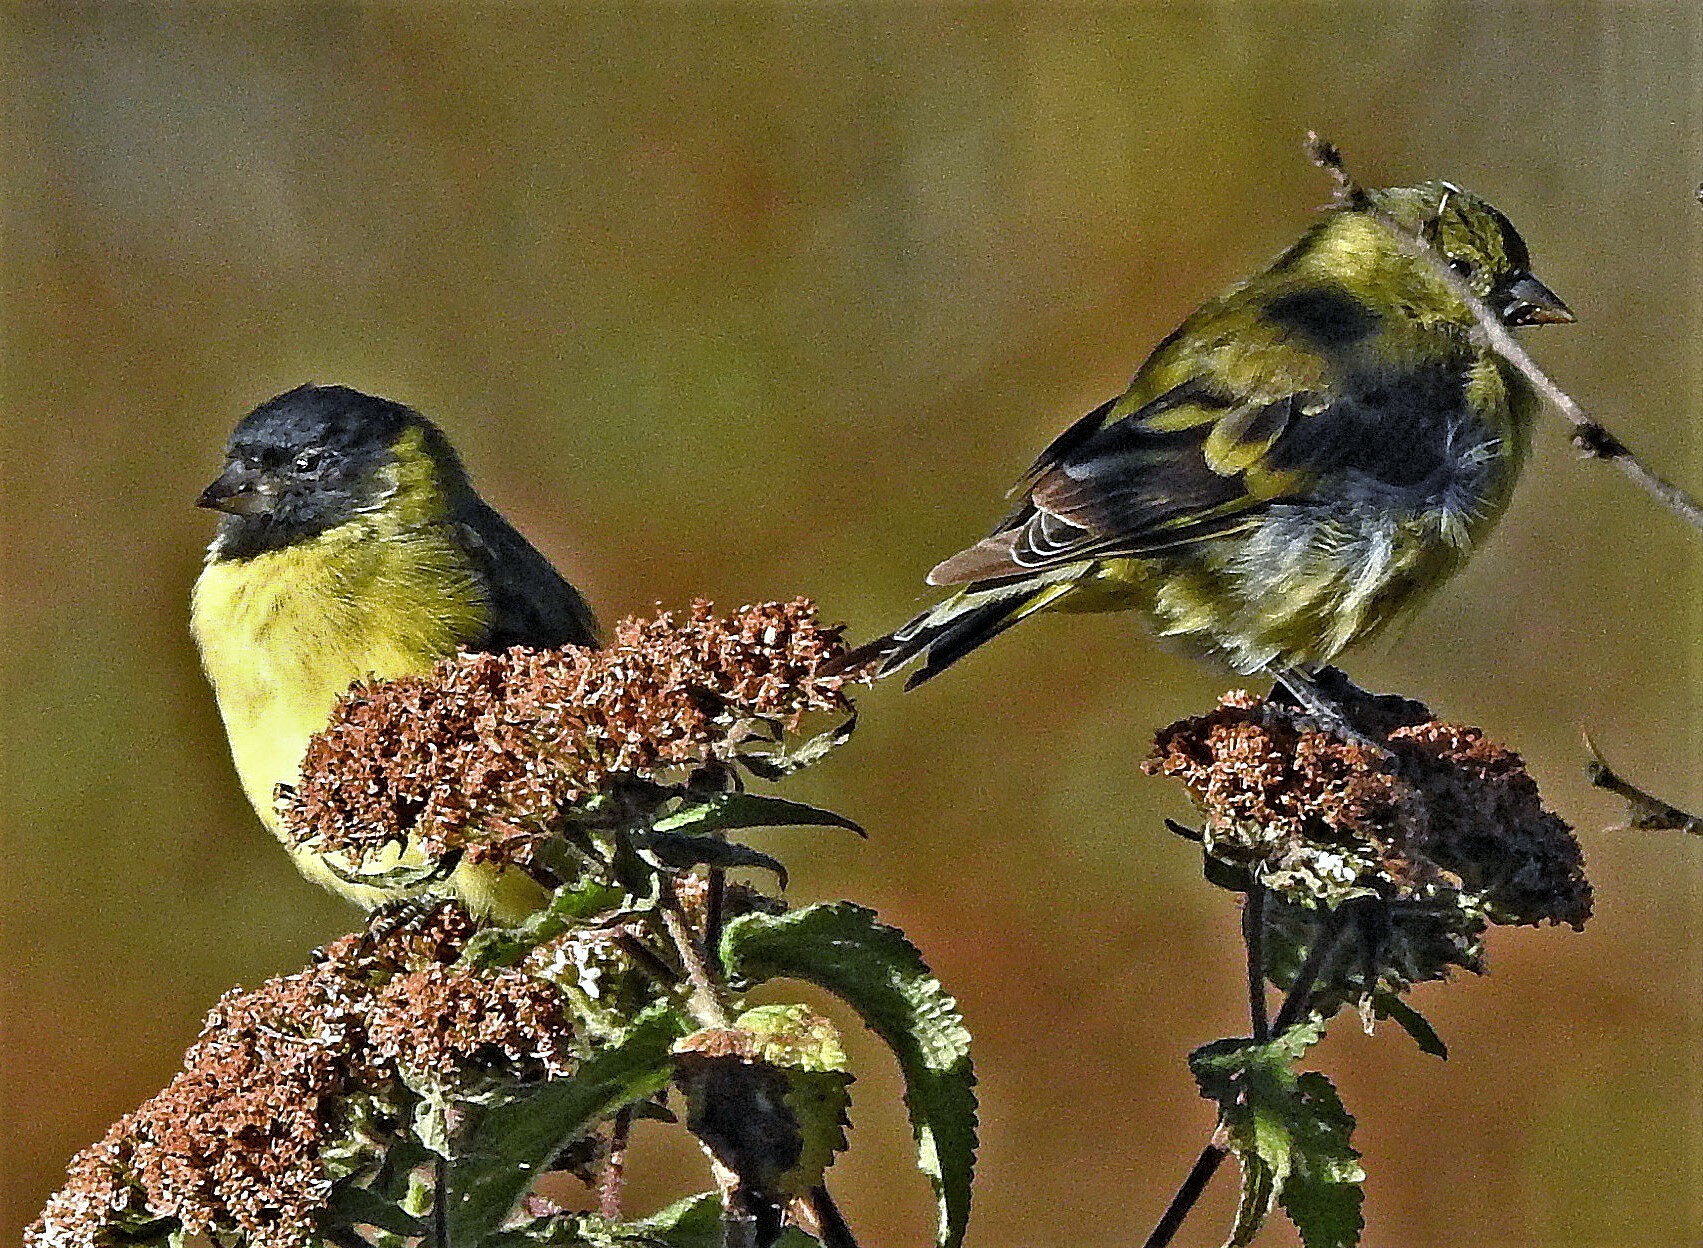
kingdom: Animalia
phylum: Chordata
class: Aves
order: Passeriformes
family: Fringillidae
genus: Spinus
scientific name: Spinus magellanicus
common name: Hooded siskin
